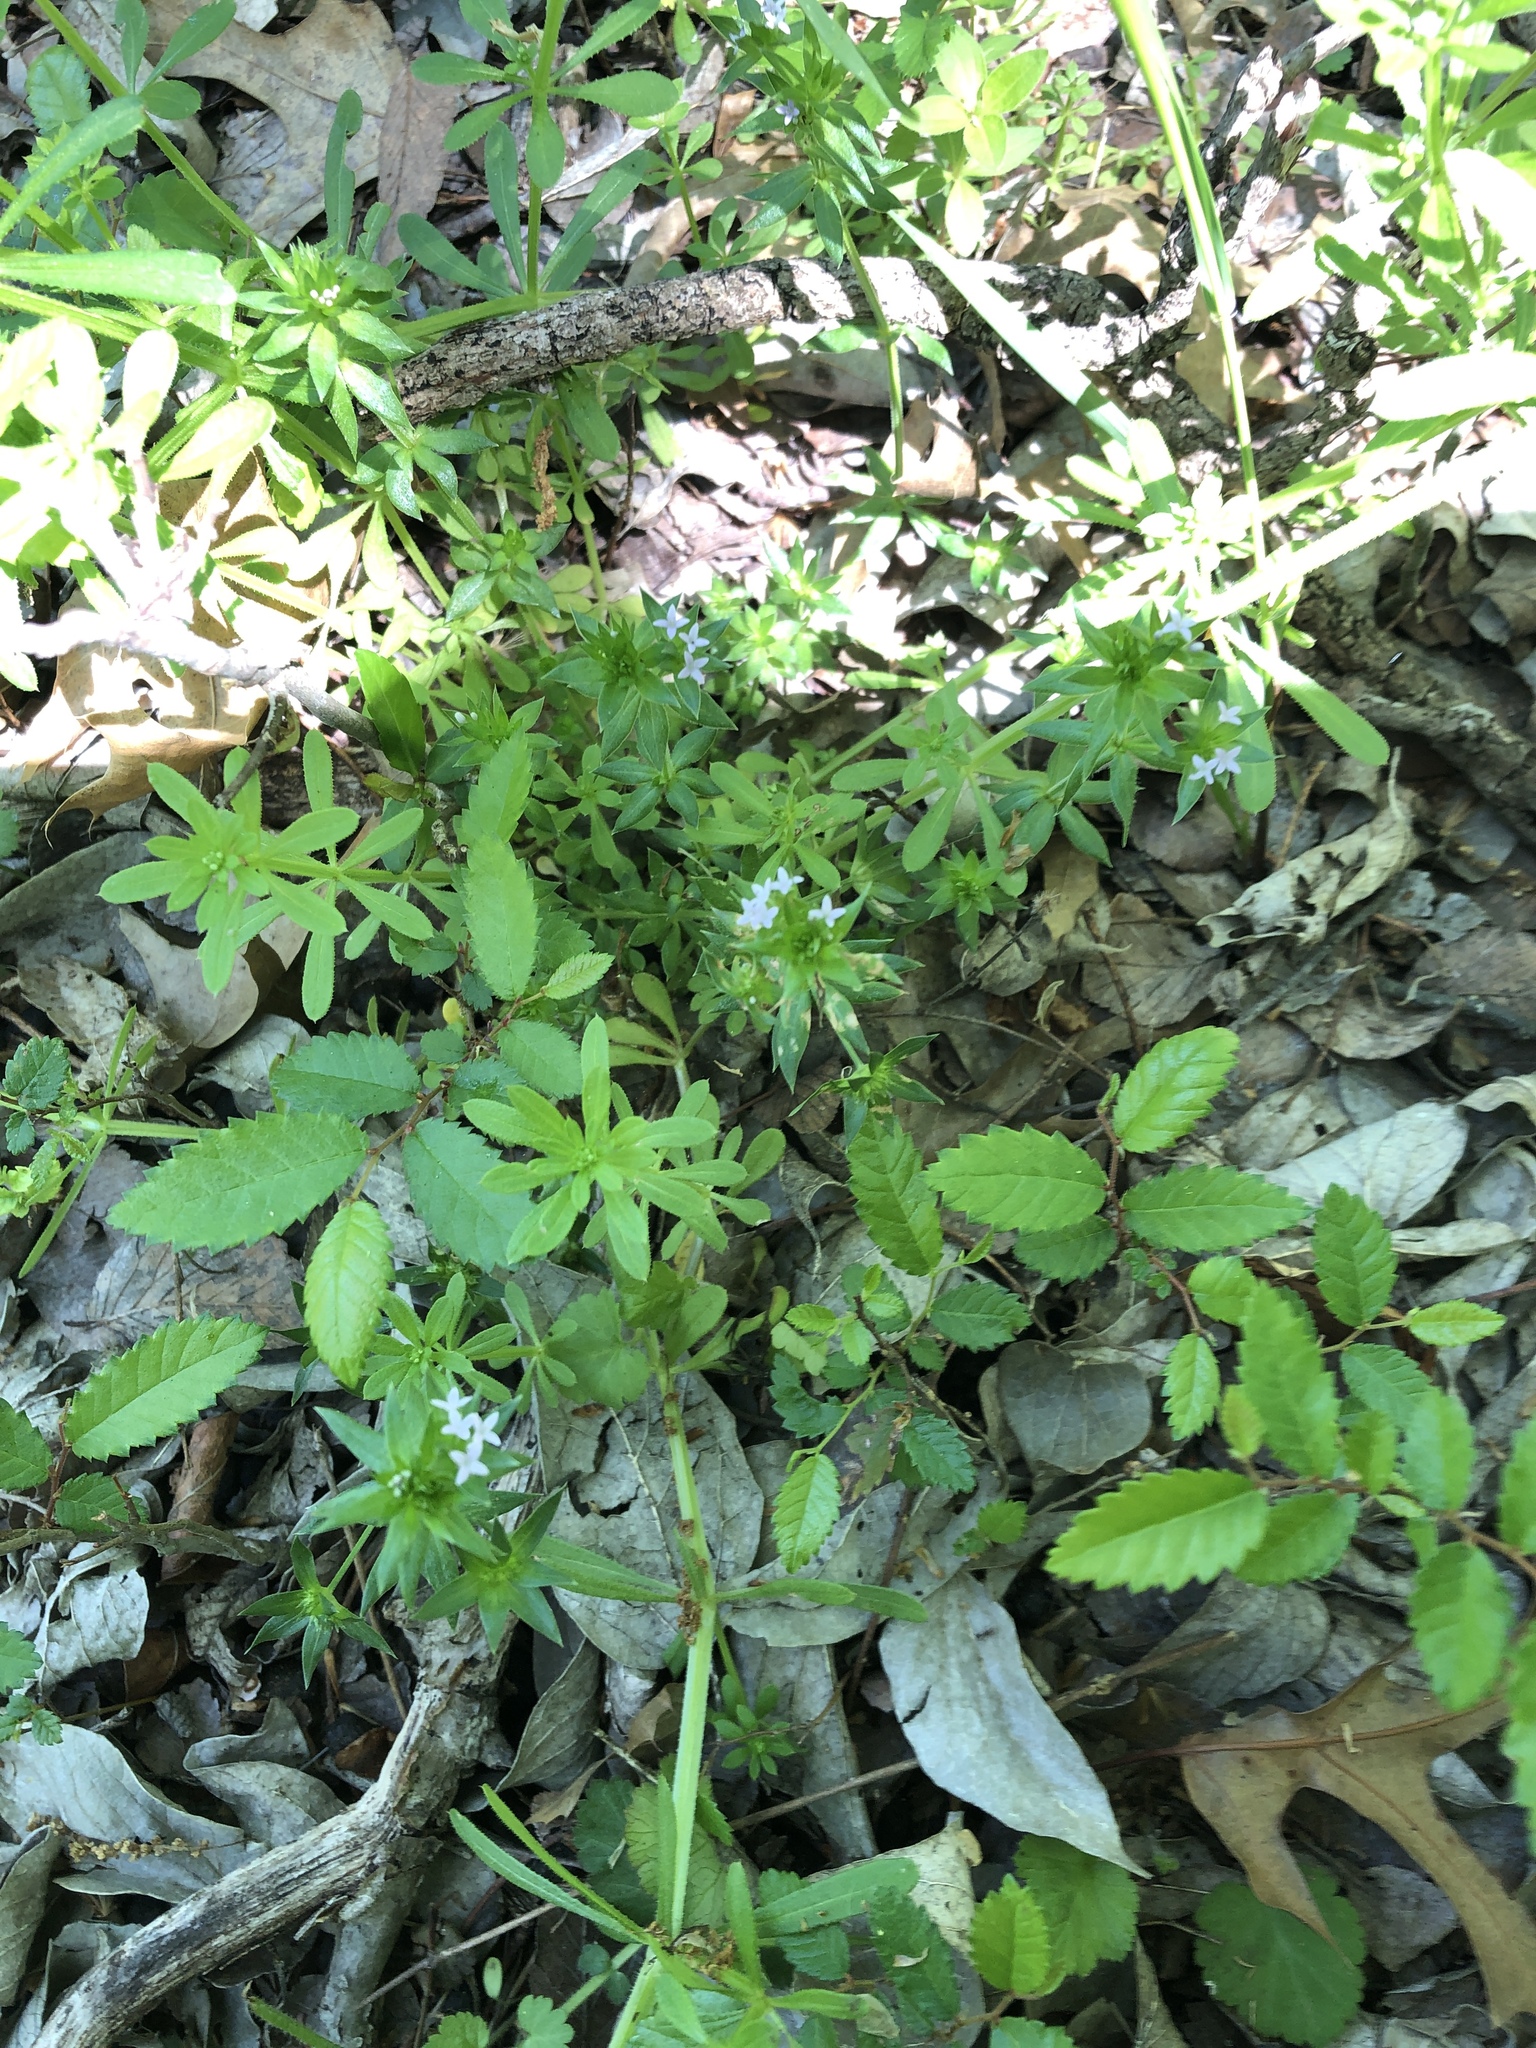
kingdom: Plantae
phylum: Tracheophyta
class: Magnoliopsida
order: Gentianales
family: Rubiaceae
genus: Sherardia
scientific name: Sherardia arvensis
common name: Field madder
